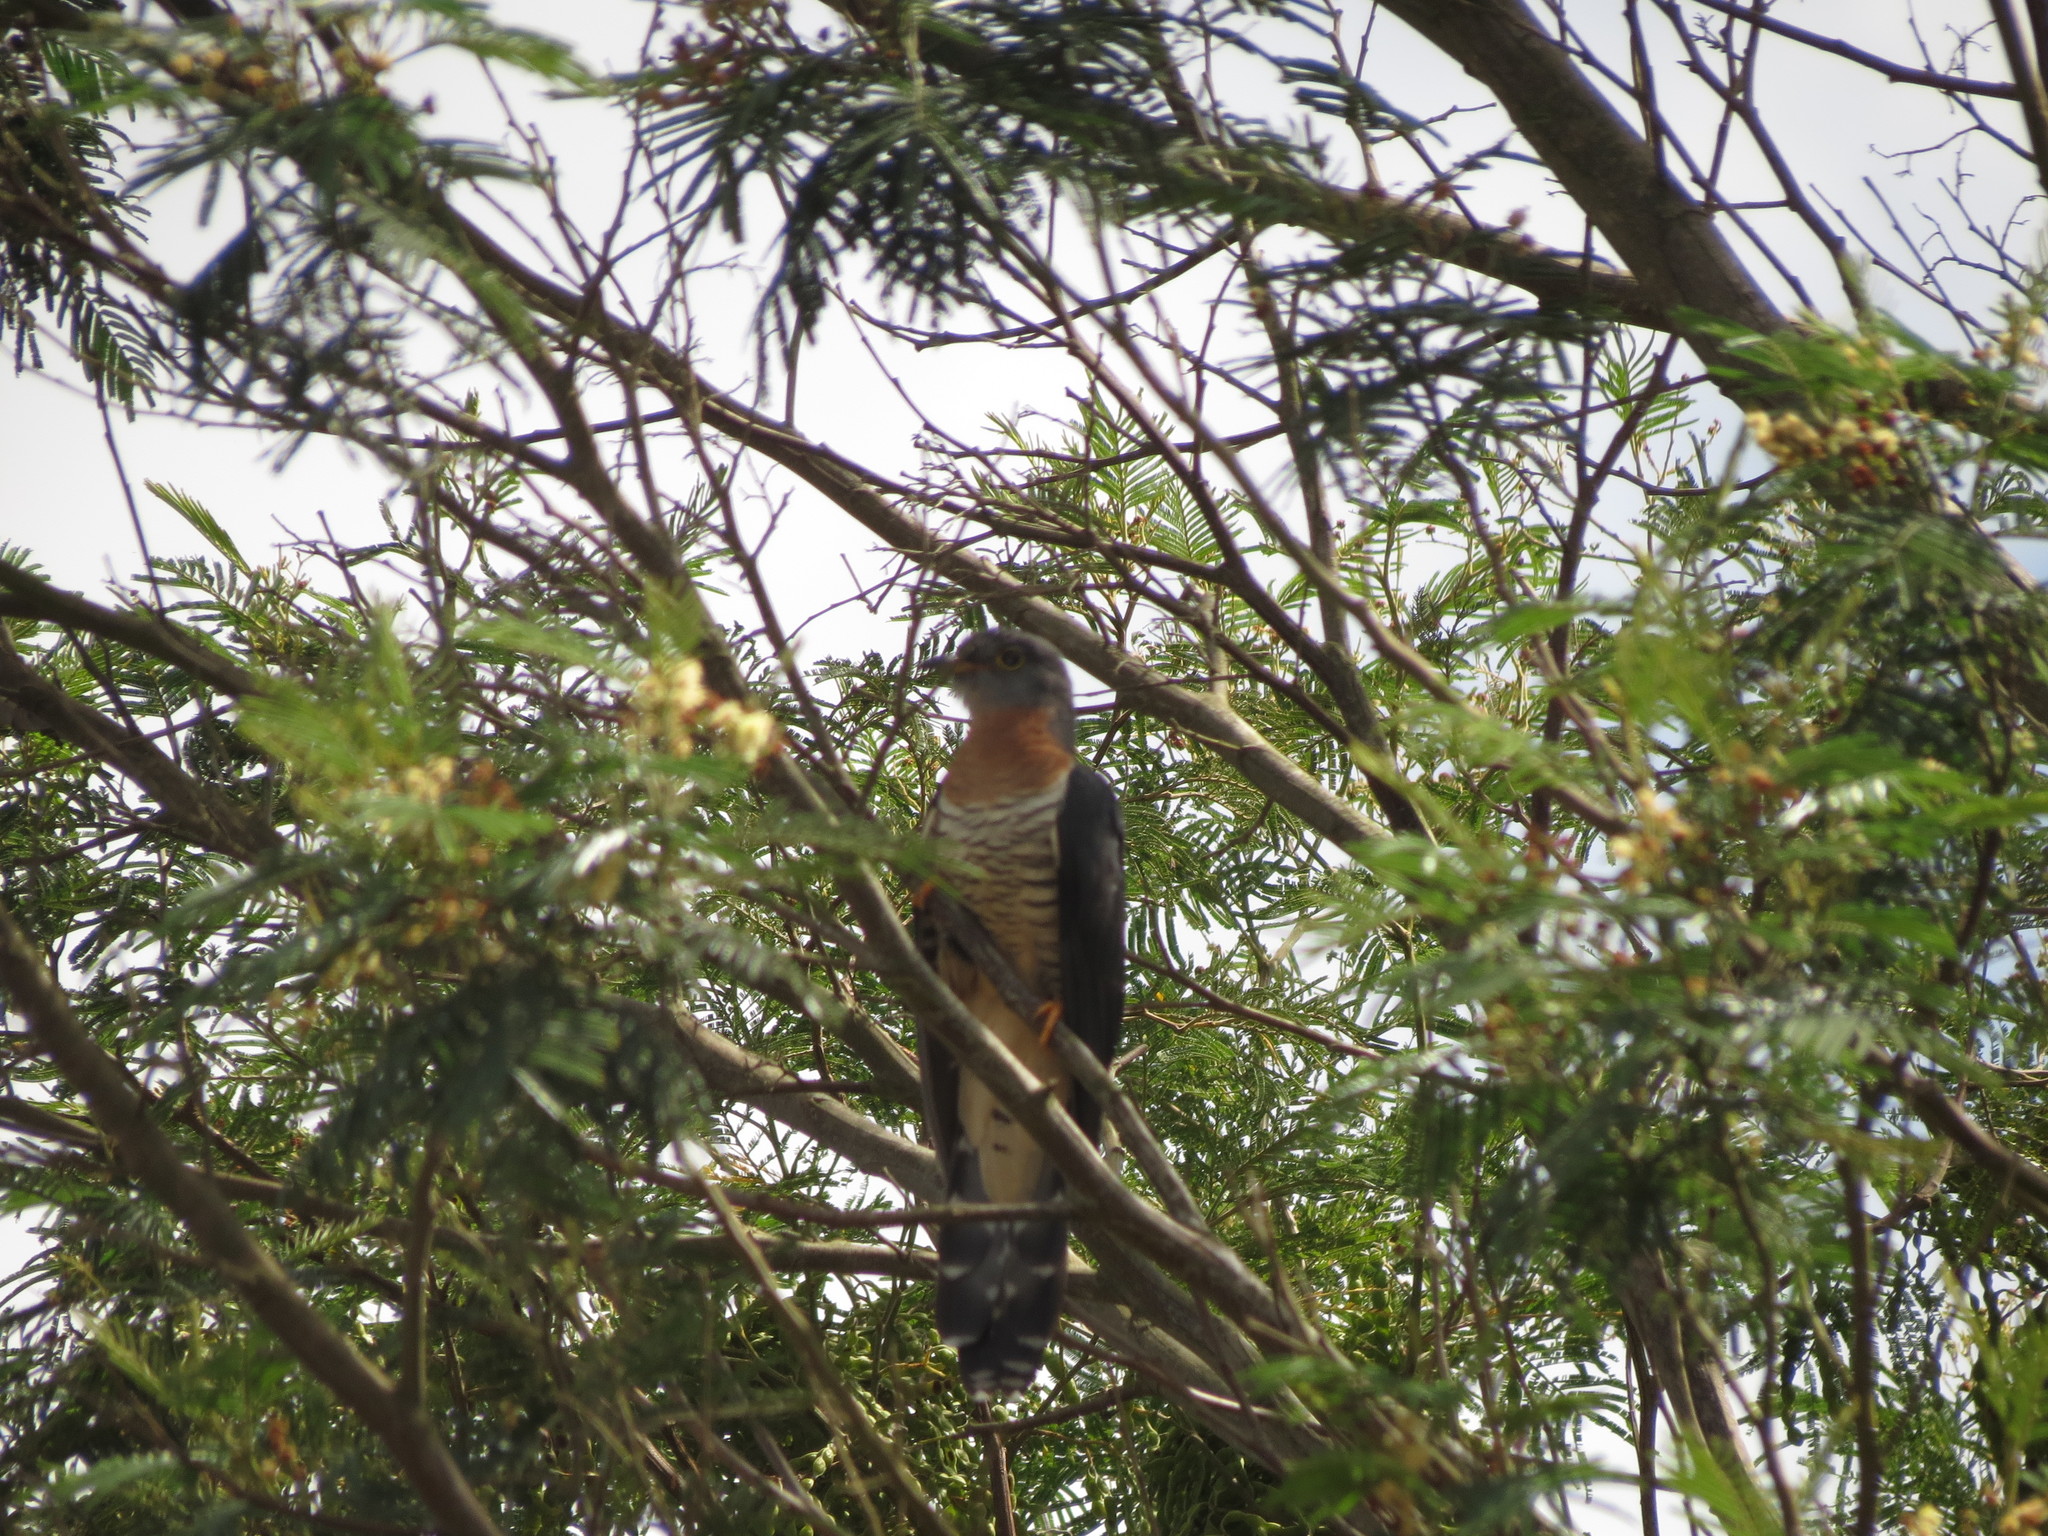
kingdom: Animalia
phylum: Chordata
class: Aves
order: Cuculiformes
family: Cuculidae
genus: Cuculus
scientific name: Cuculus solitarius
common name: Red-chested cuckoo
